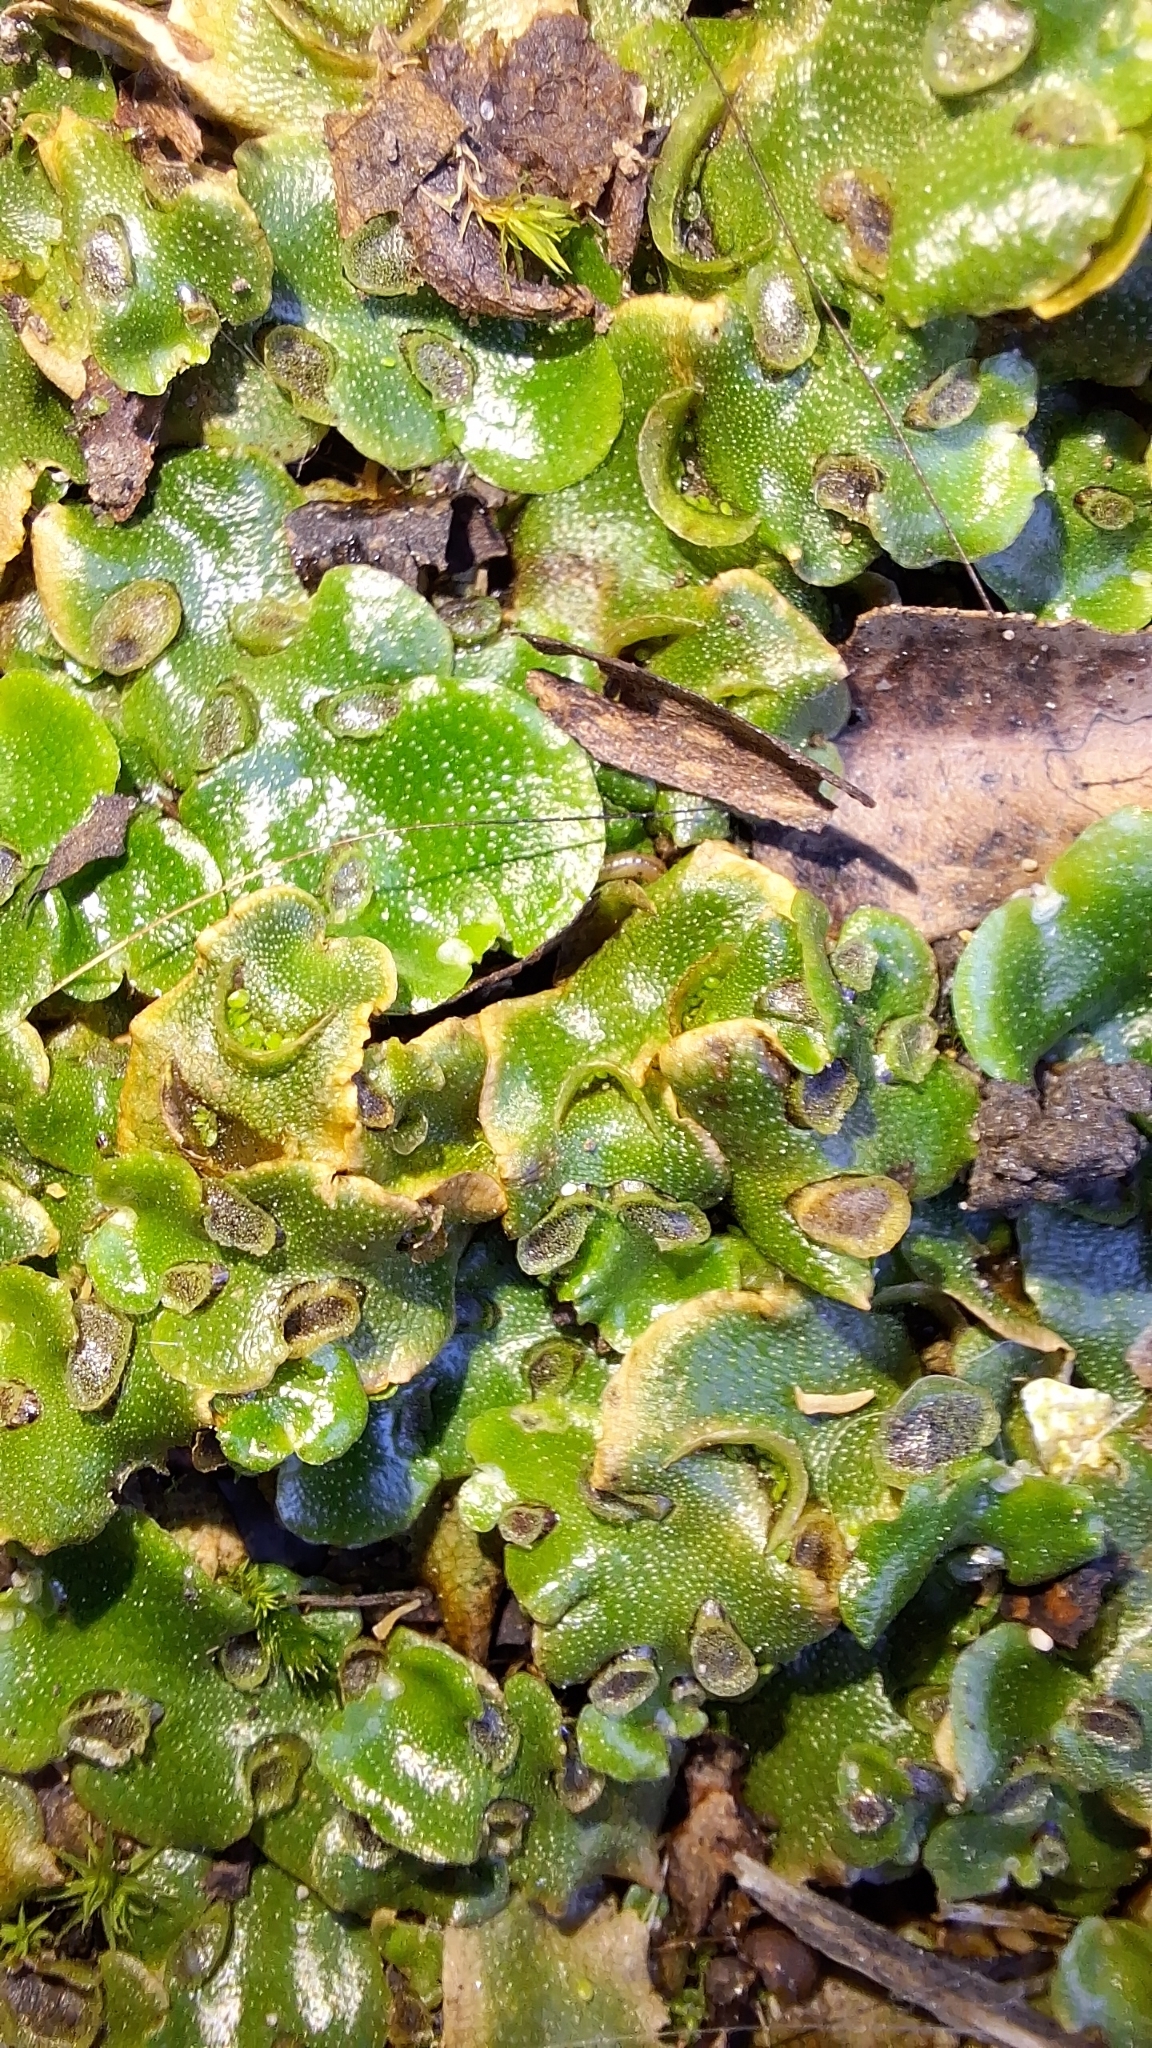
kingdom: Plantae
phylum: Marchantiophyta
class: Marchantiopsida
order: Lunulariales
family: Lunulariaceae
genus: Lunularia
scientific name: Lunularia cruciata
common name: Crescent-cup liverwort
